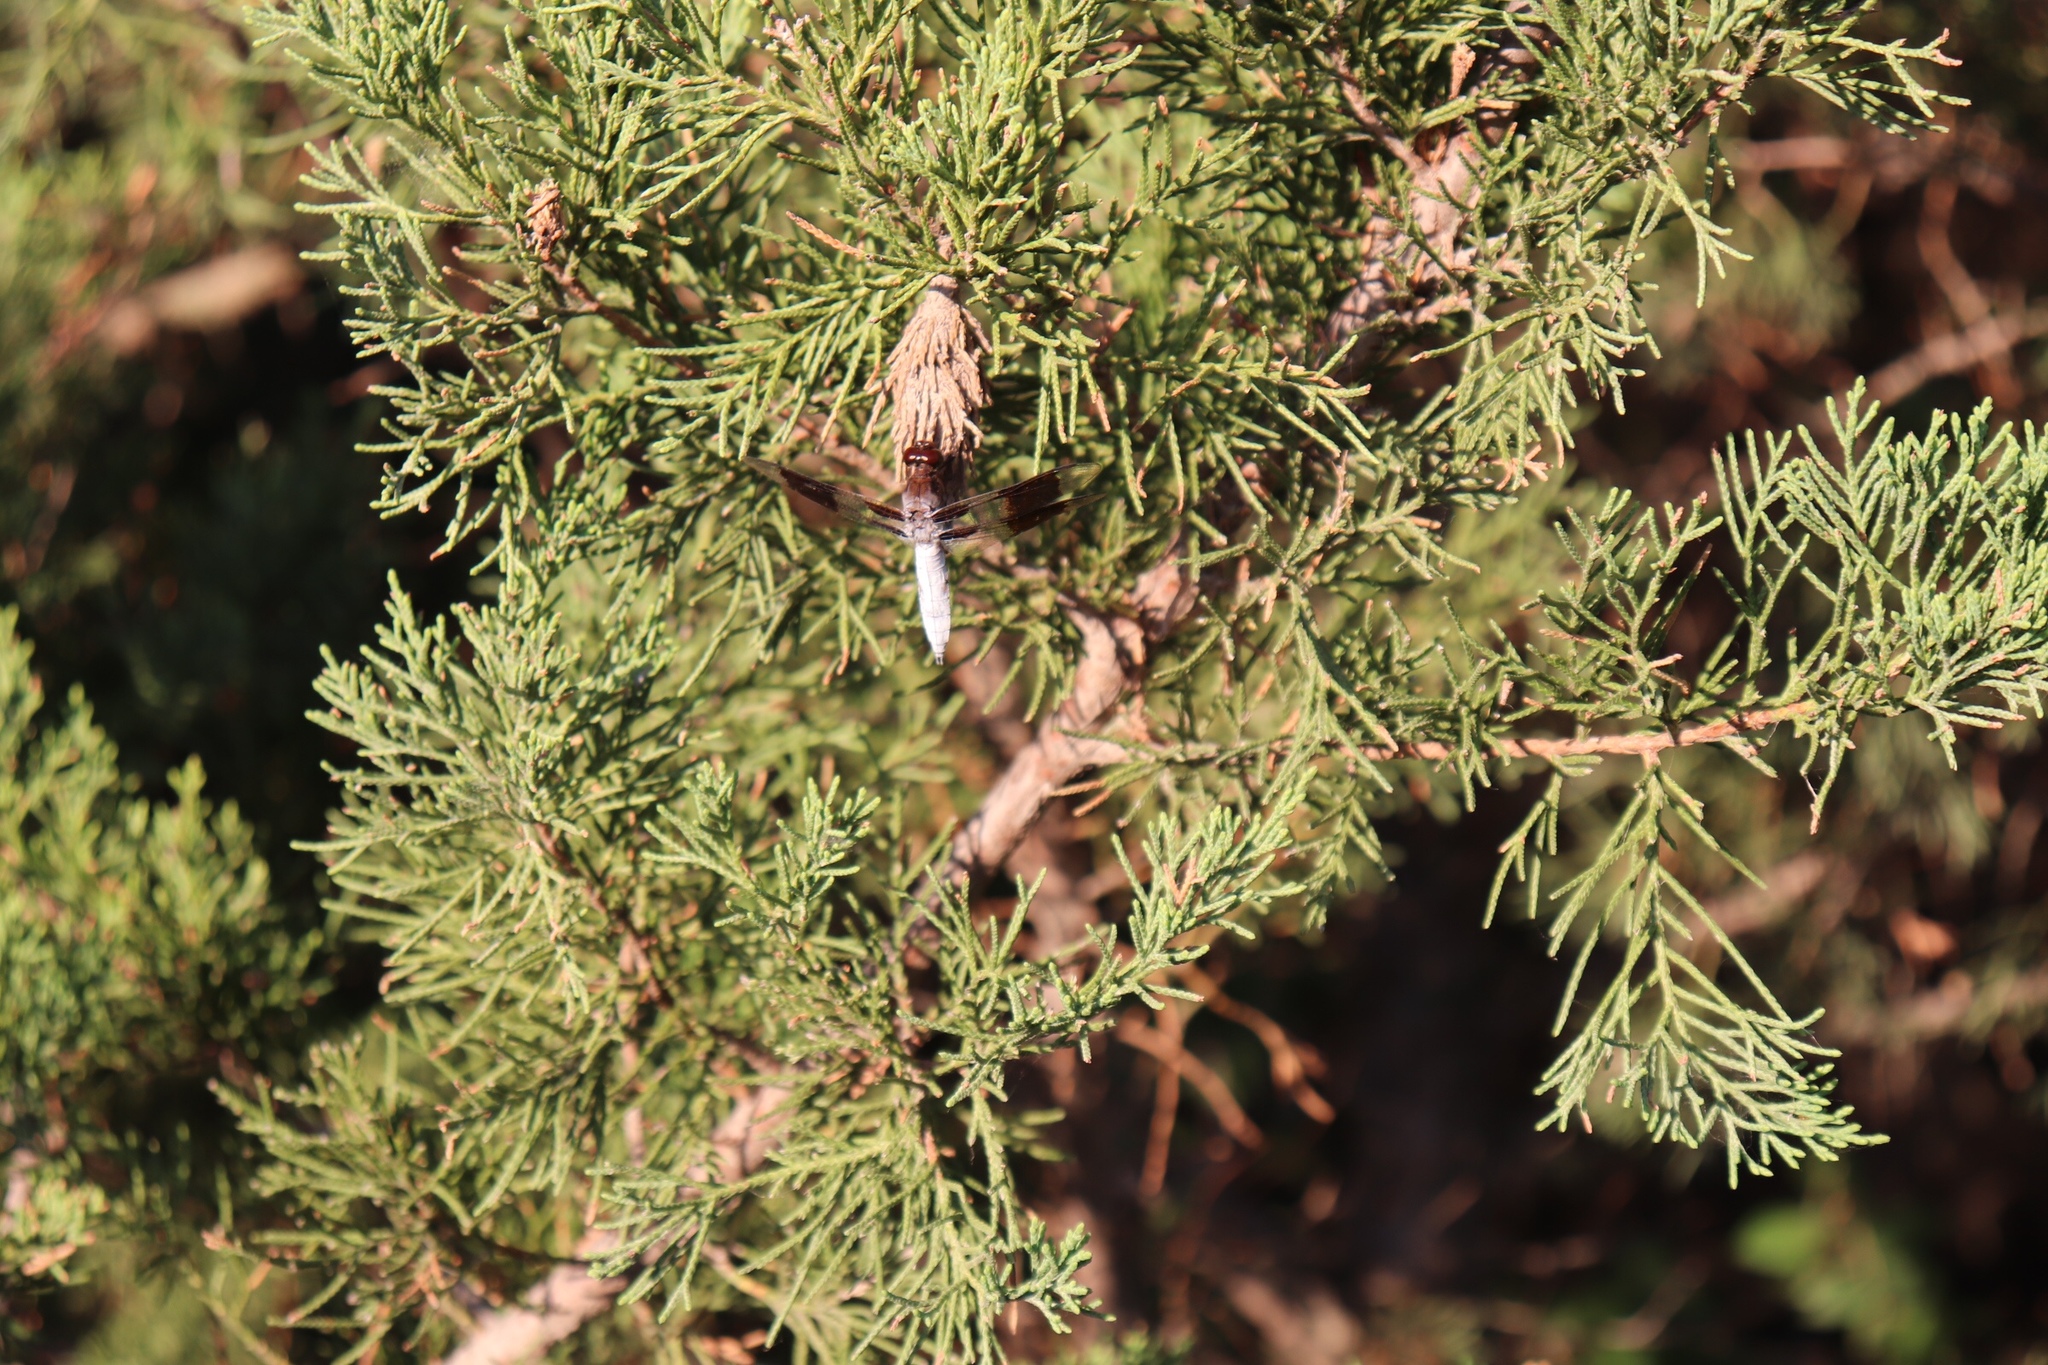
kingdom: Animalia
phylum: Arthropoda
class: Insecta
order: Odonata
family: Libellulidae
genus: Plathemis
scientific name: Plathemis lydia
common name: Common whitetail
